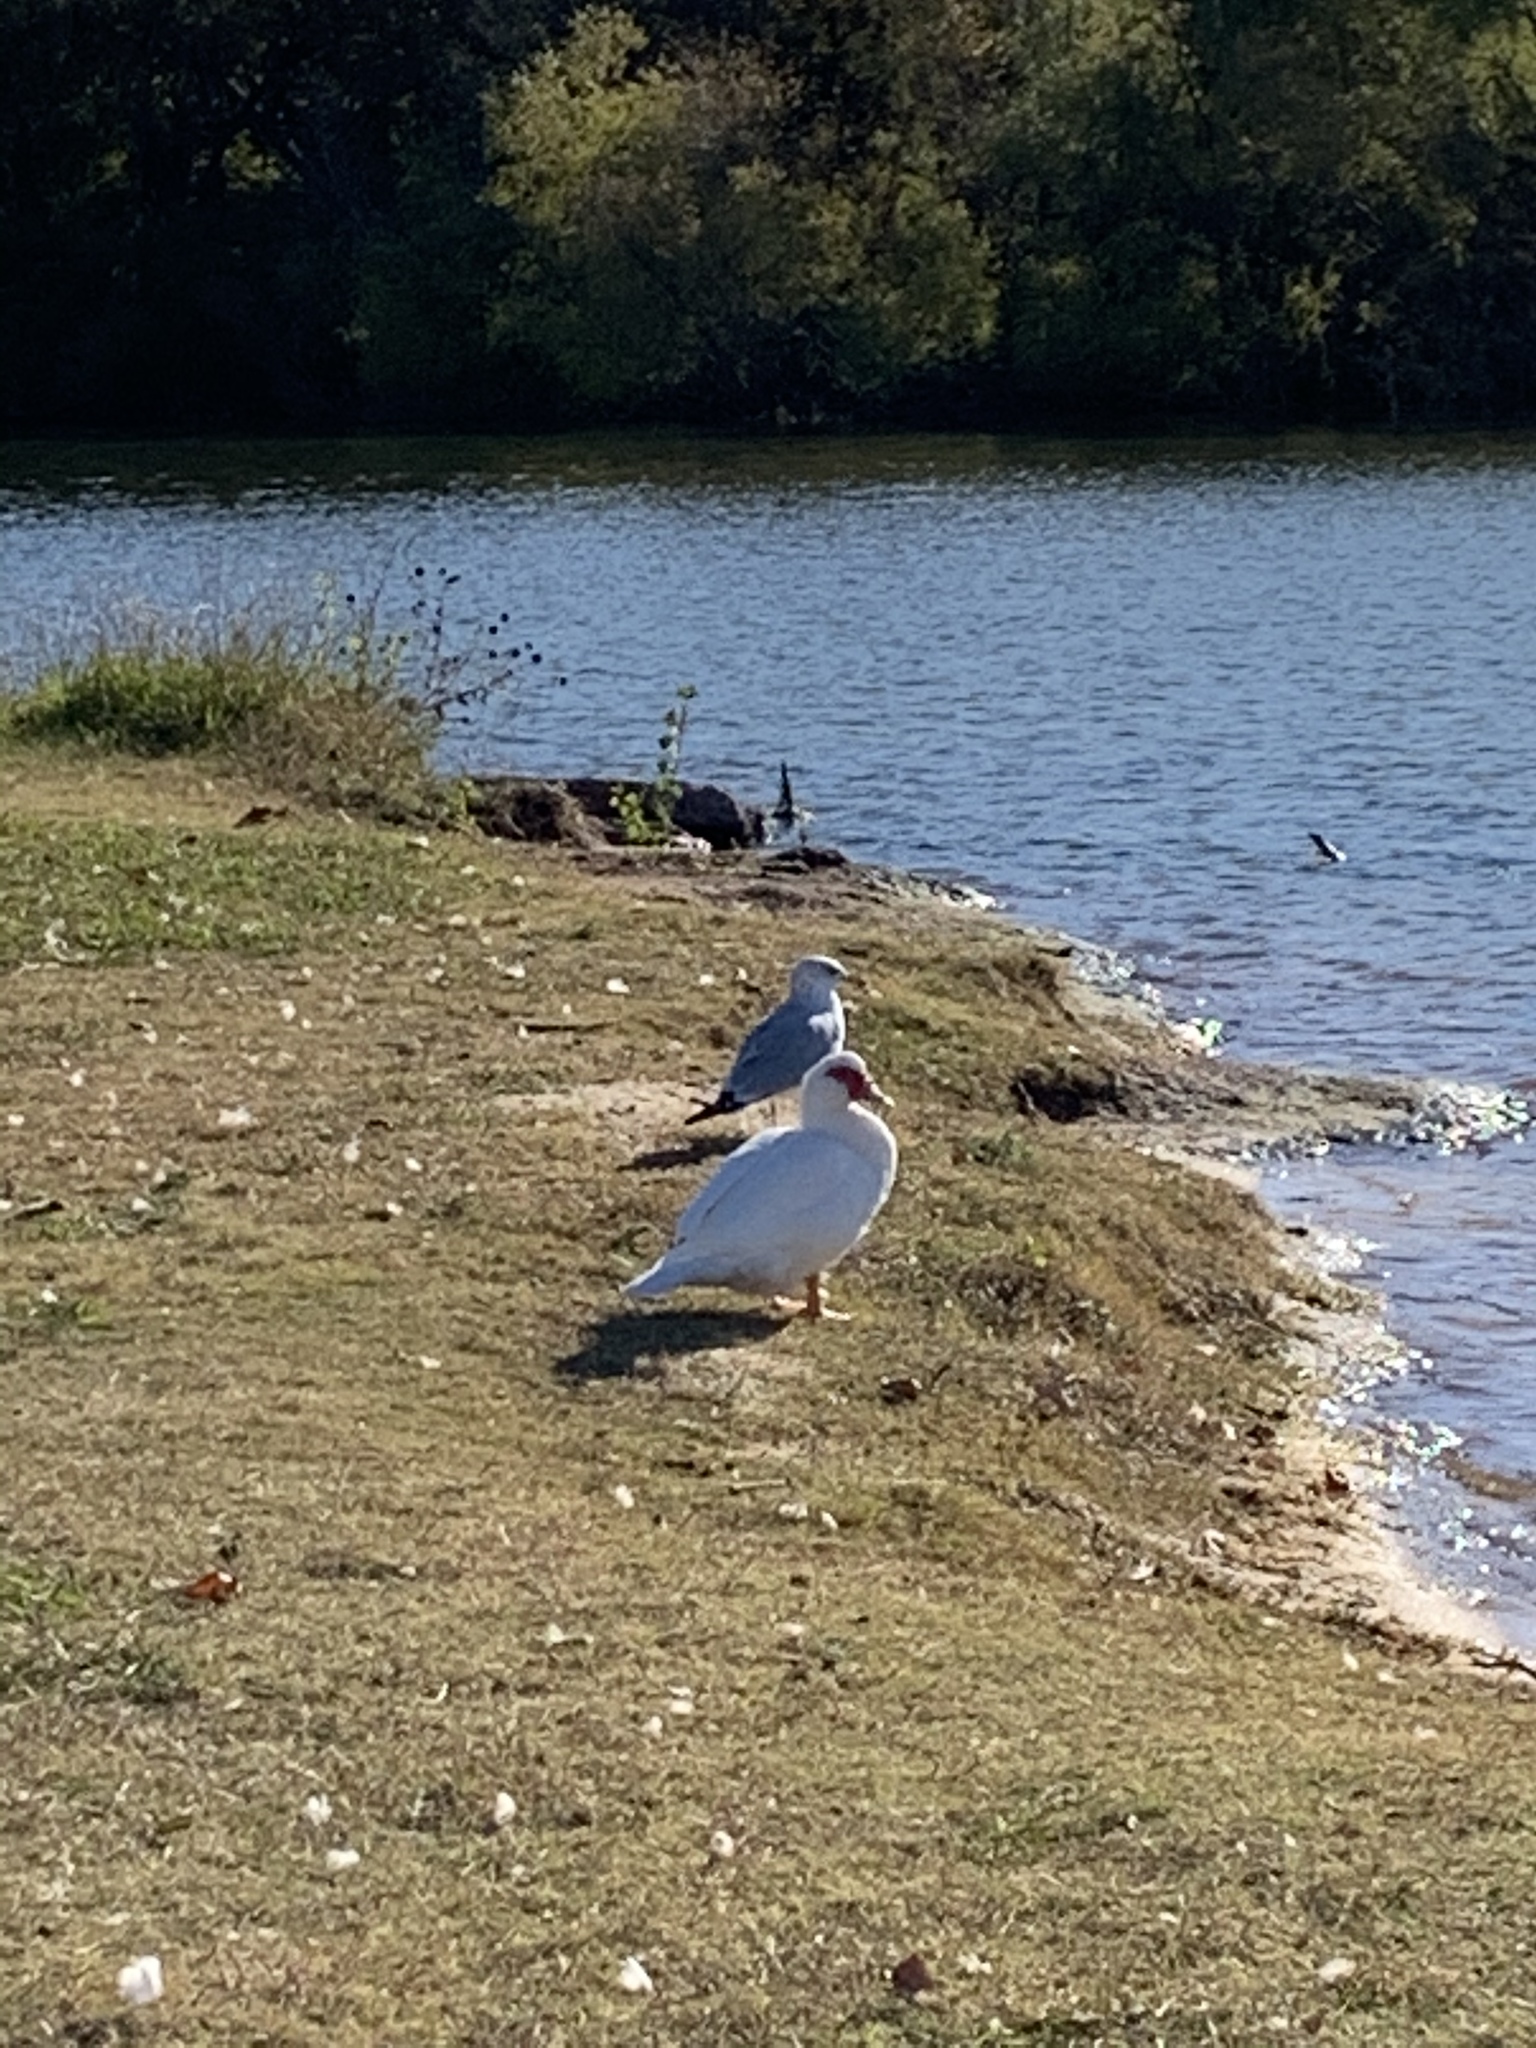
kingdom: Animalia
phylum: Chordata
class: Aves
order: Anseriformes
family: Anatidae
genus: Cairina
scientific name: Cairina moschata
